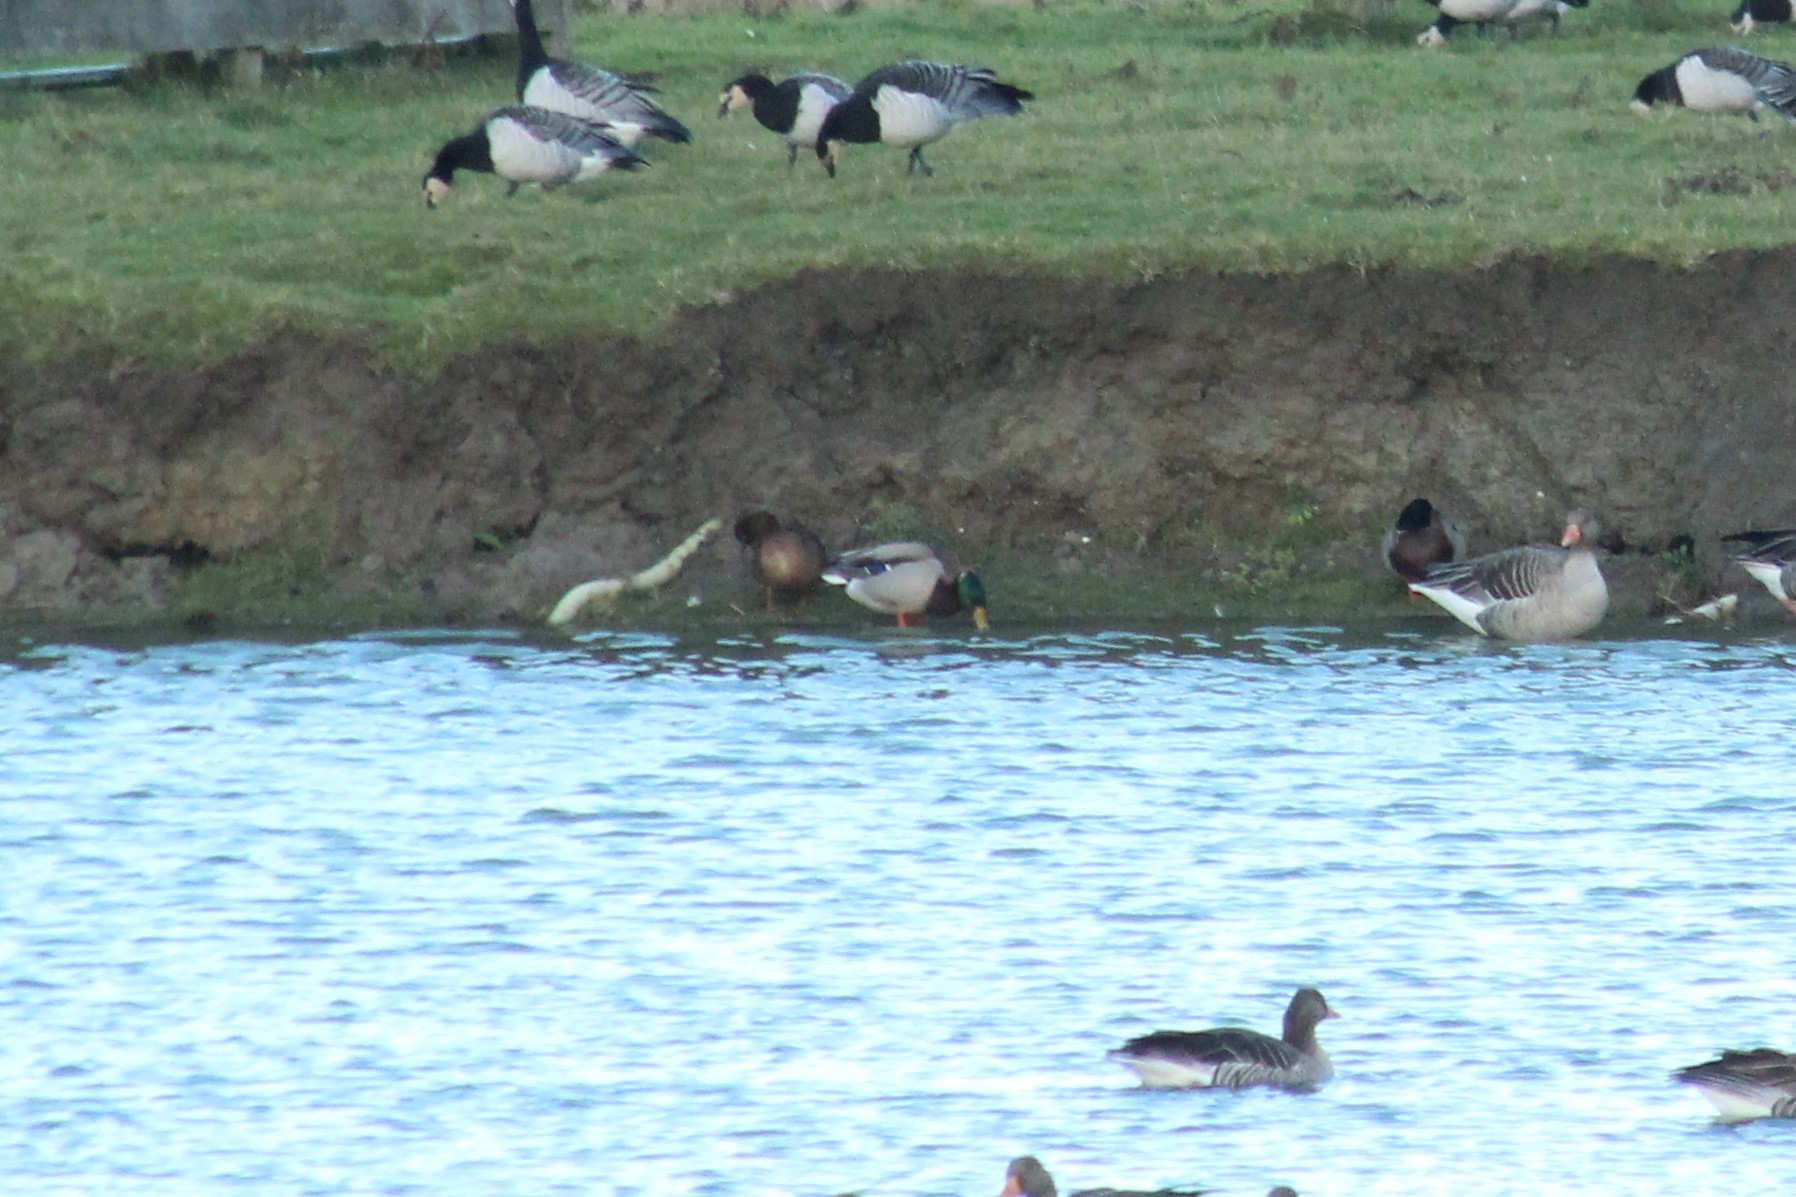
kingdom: Animalia
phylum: Chordata
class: Aves
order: Anseriformes
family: Anatidae
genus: Anas
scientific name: Anas platyrhynchos
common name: Mallard
